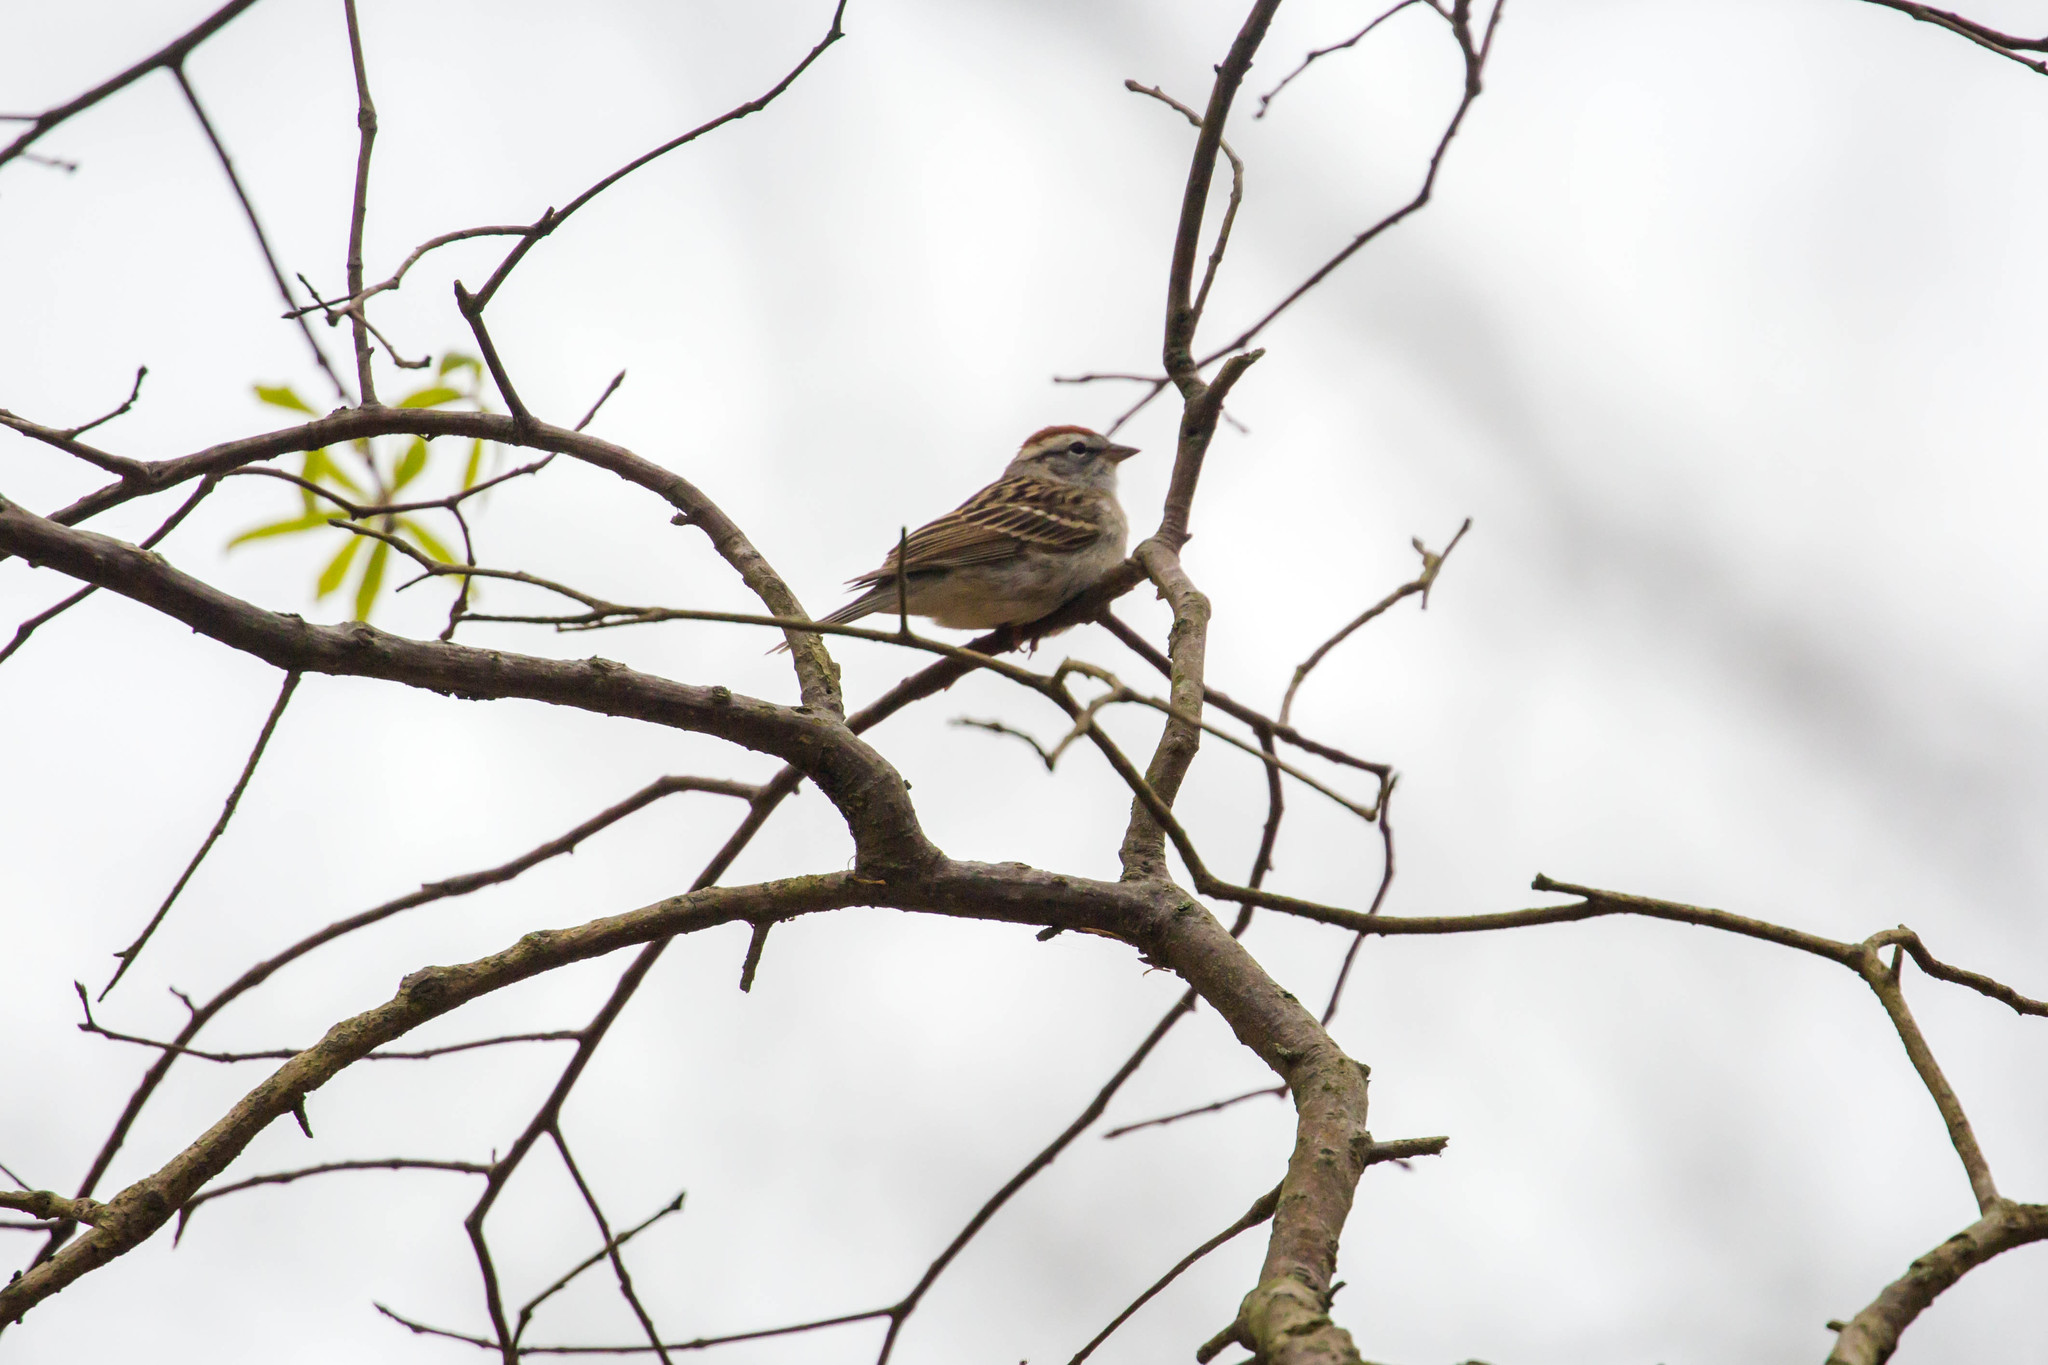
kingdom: Animalia
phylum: Chordata
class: Aves
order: Passeriformes
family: Passerellidae
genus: Spizella
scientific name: Spizella passerina
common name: Chipping sparrow
